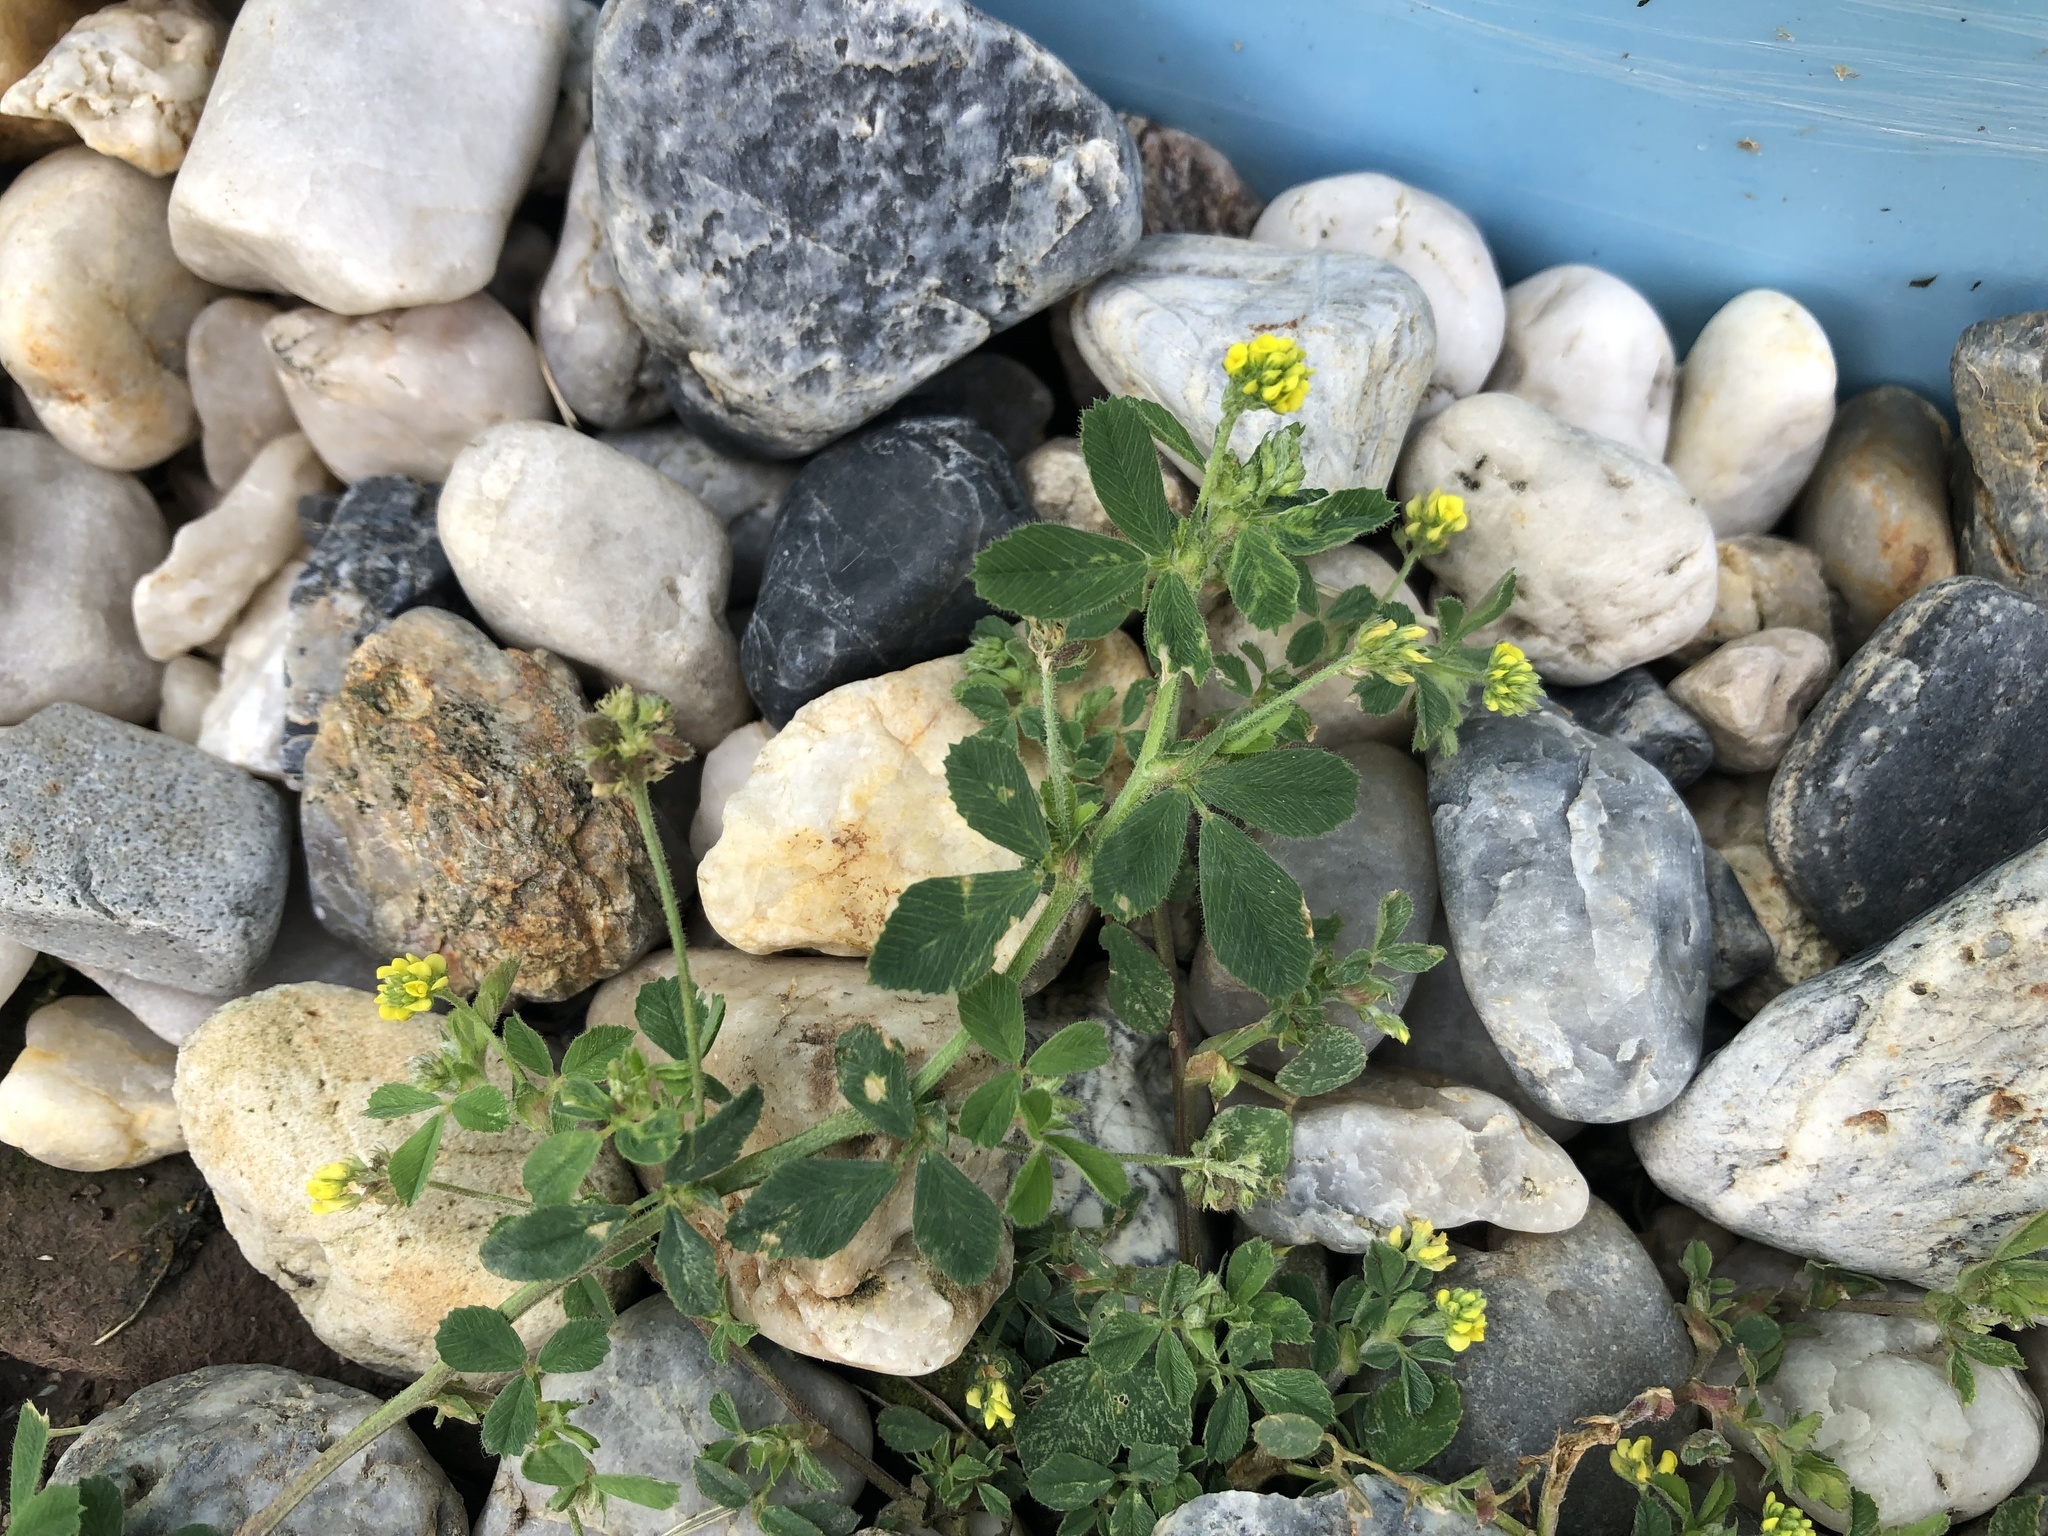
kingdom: Plantae
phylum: Tracheophyta
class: Magnoliopsida
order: Fabales
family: Fabaceae
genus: Medicago
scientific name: Medicago lupulina
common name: Black medick
